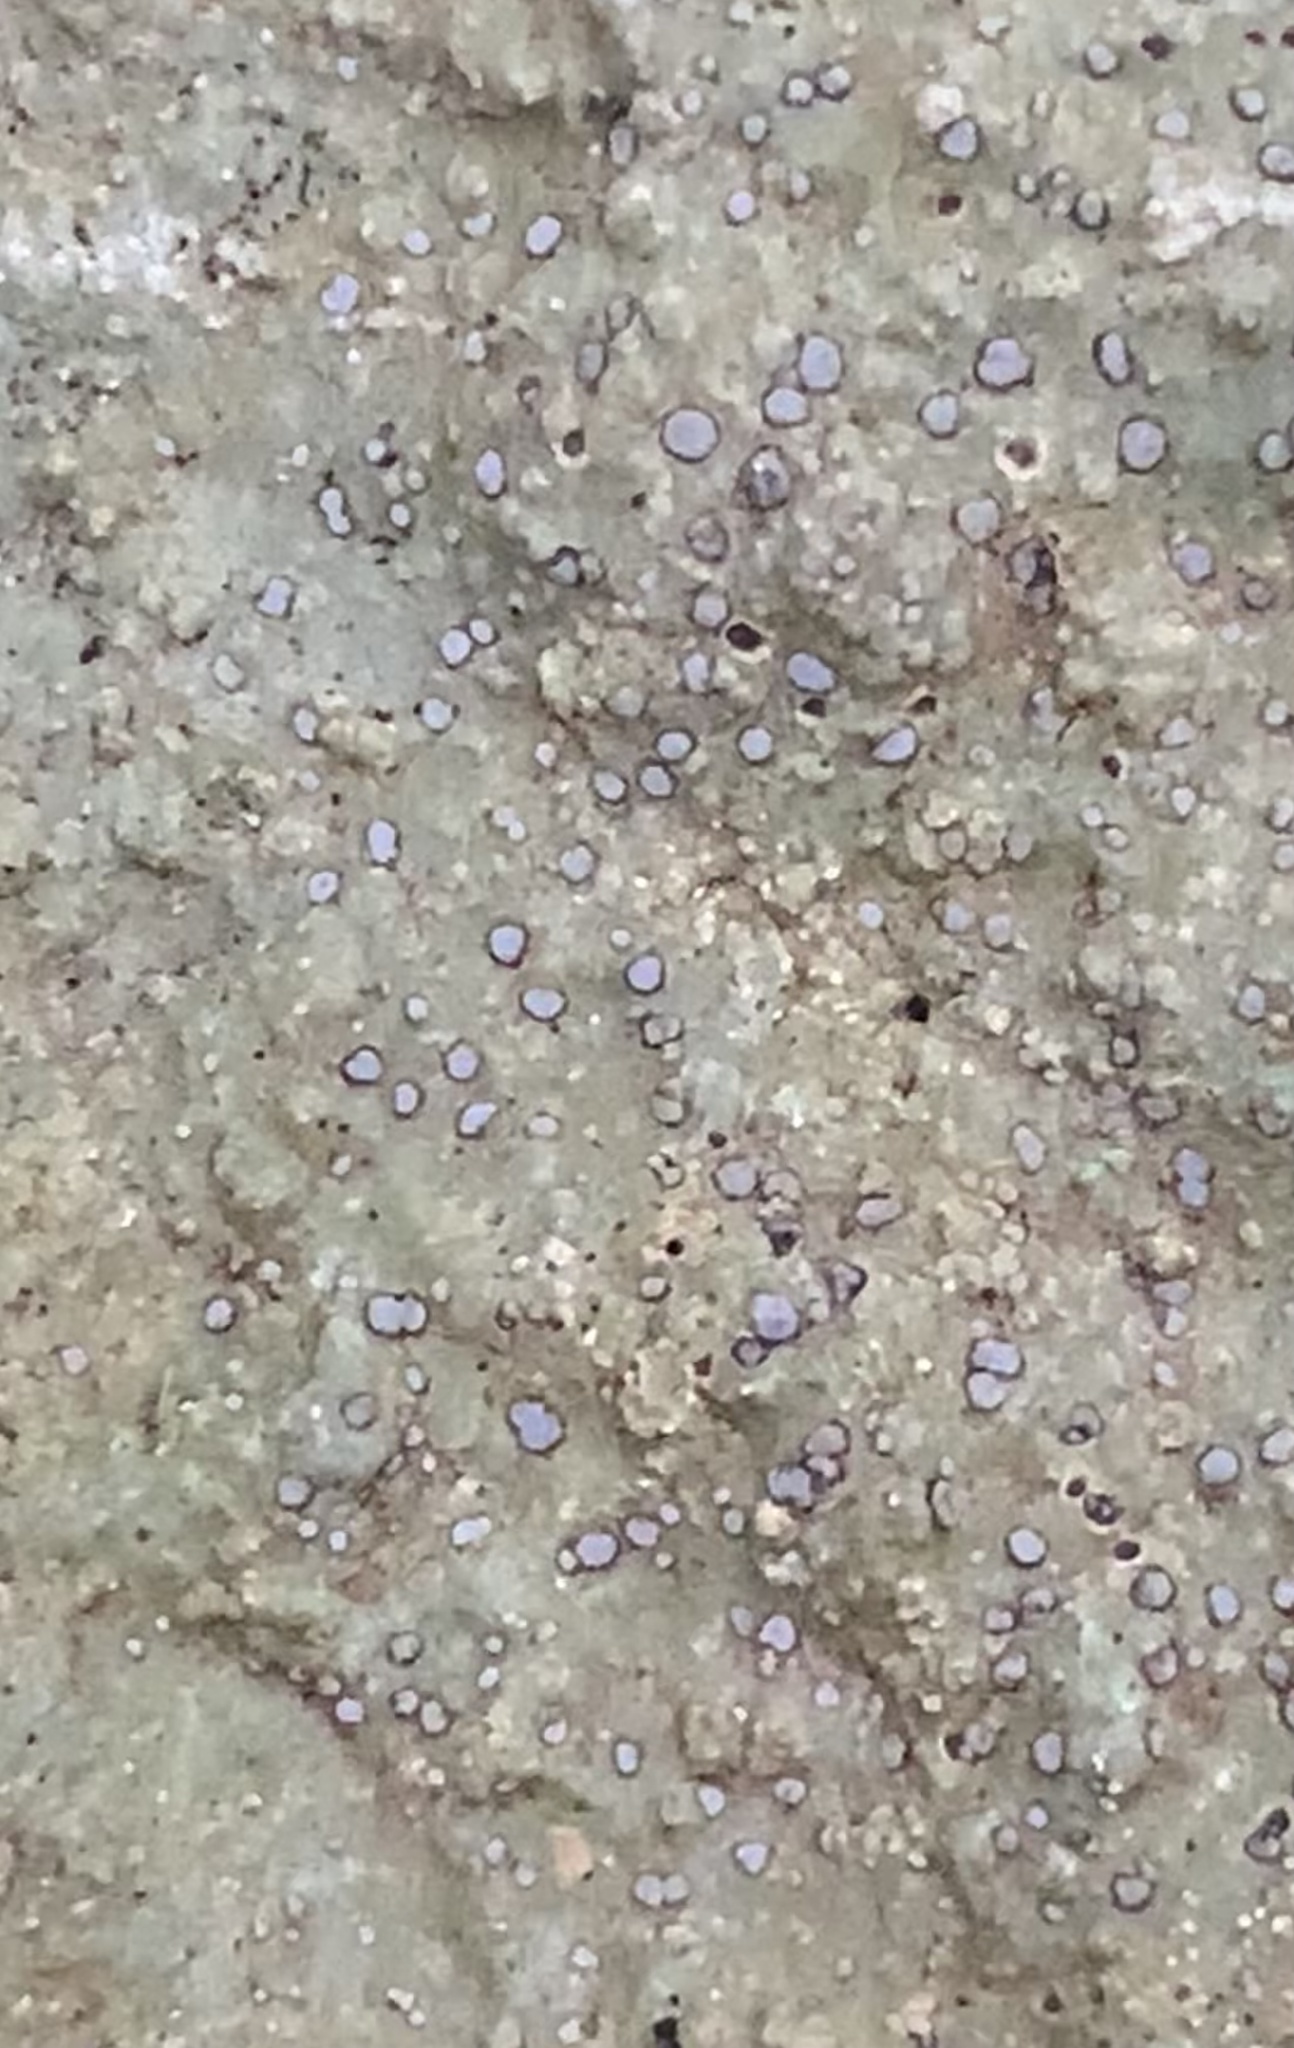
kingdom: Fungi
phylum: Ascomycota
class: Lecanoromycetes
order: Lecideales
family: Lecideaceae
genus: Porpidia
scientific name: Porpidia albocaerulescens
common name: Smokey-eyed boulder lichen
